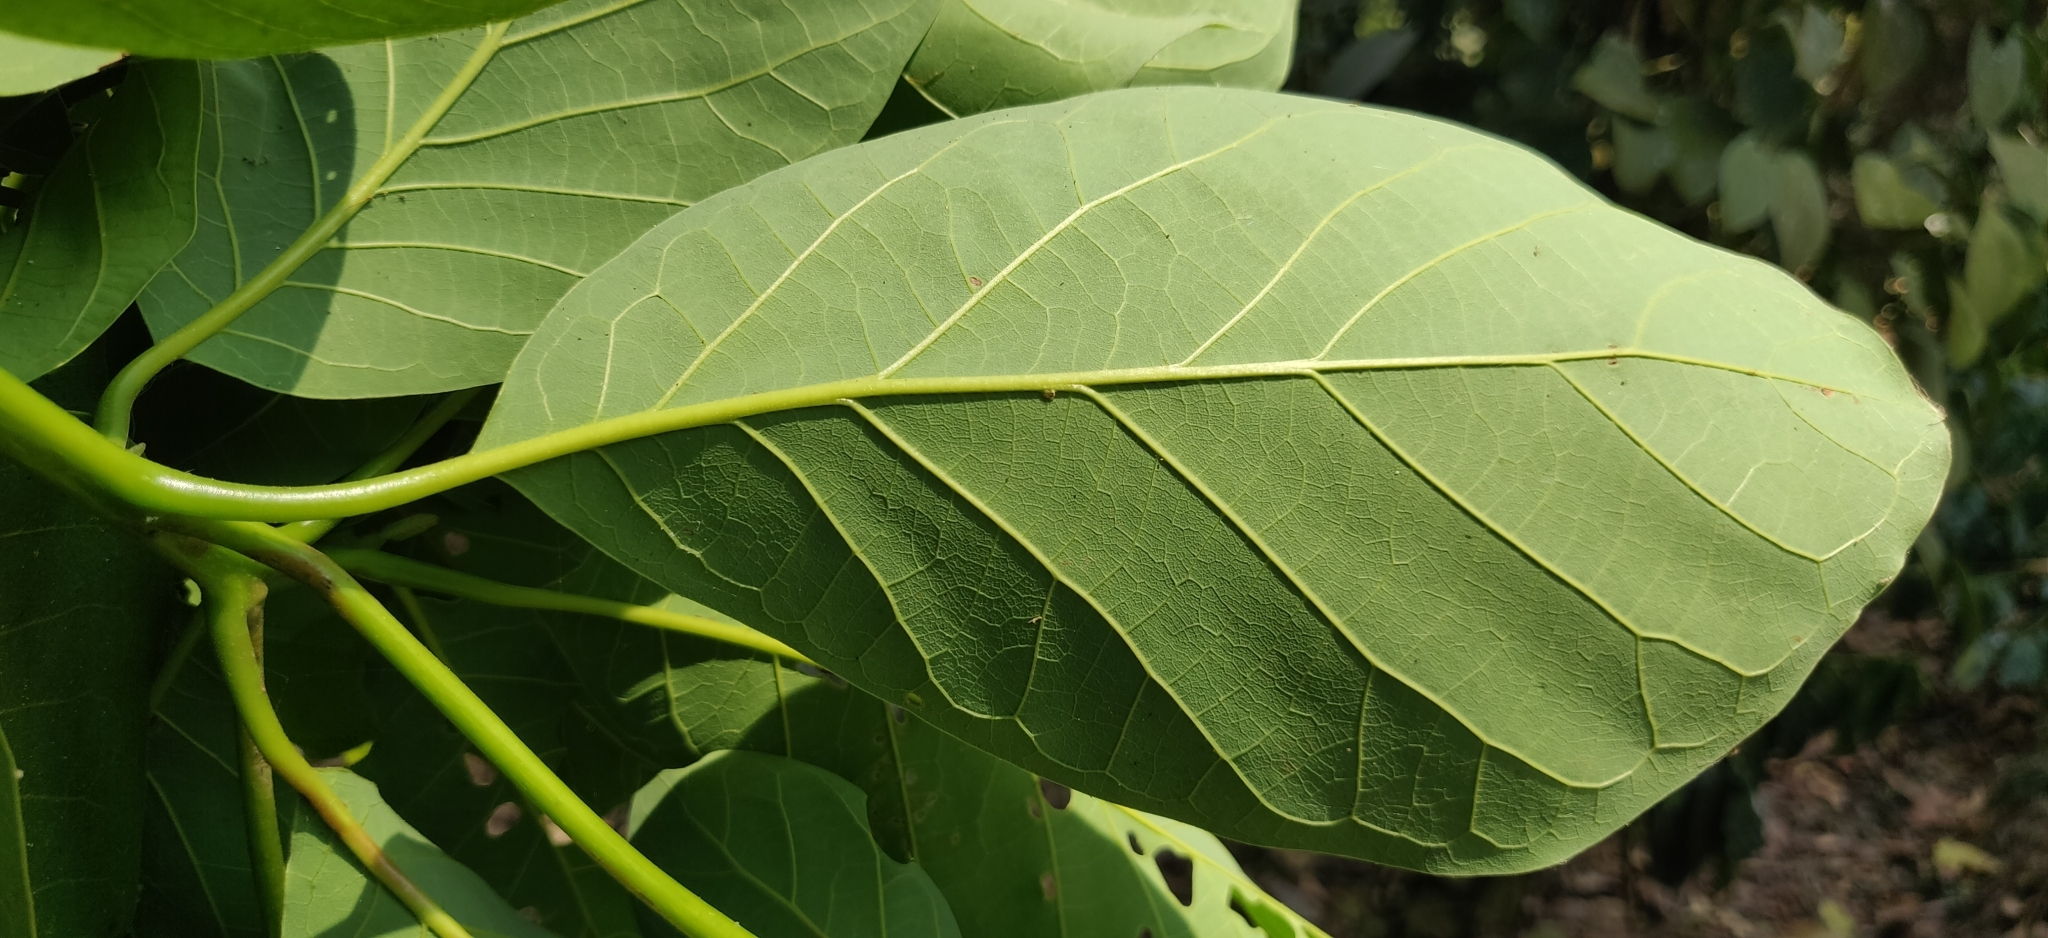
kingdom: Plantae
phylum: Tracheophyta
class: Magnoliopsida
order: Myrtales
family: Combretaceae
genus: Terminalia
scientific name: Terminalia bellirica
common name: Beleric myrobalan
